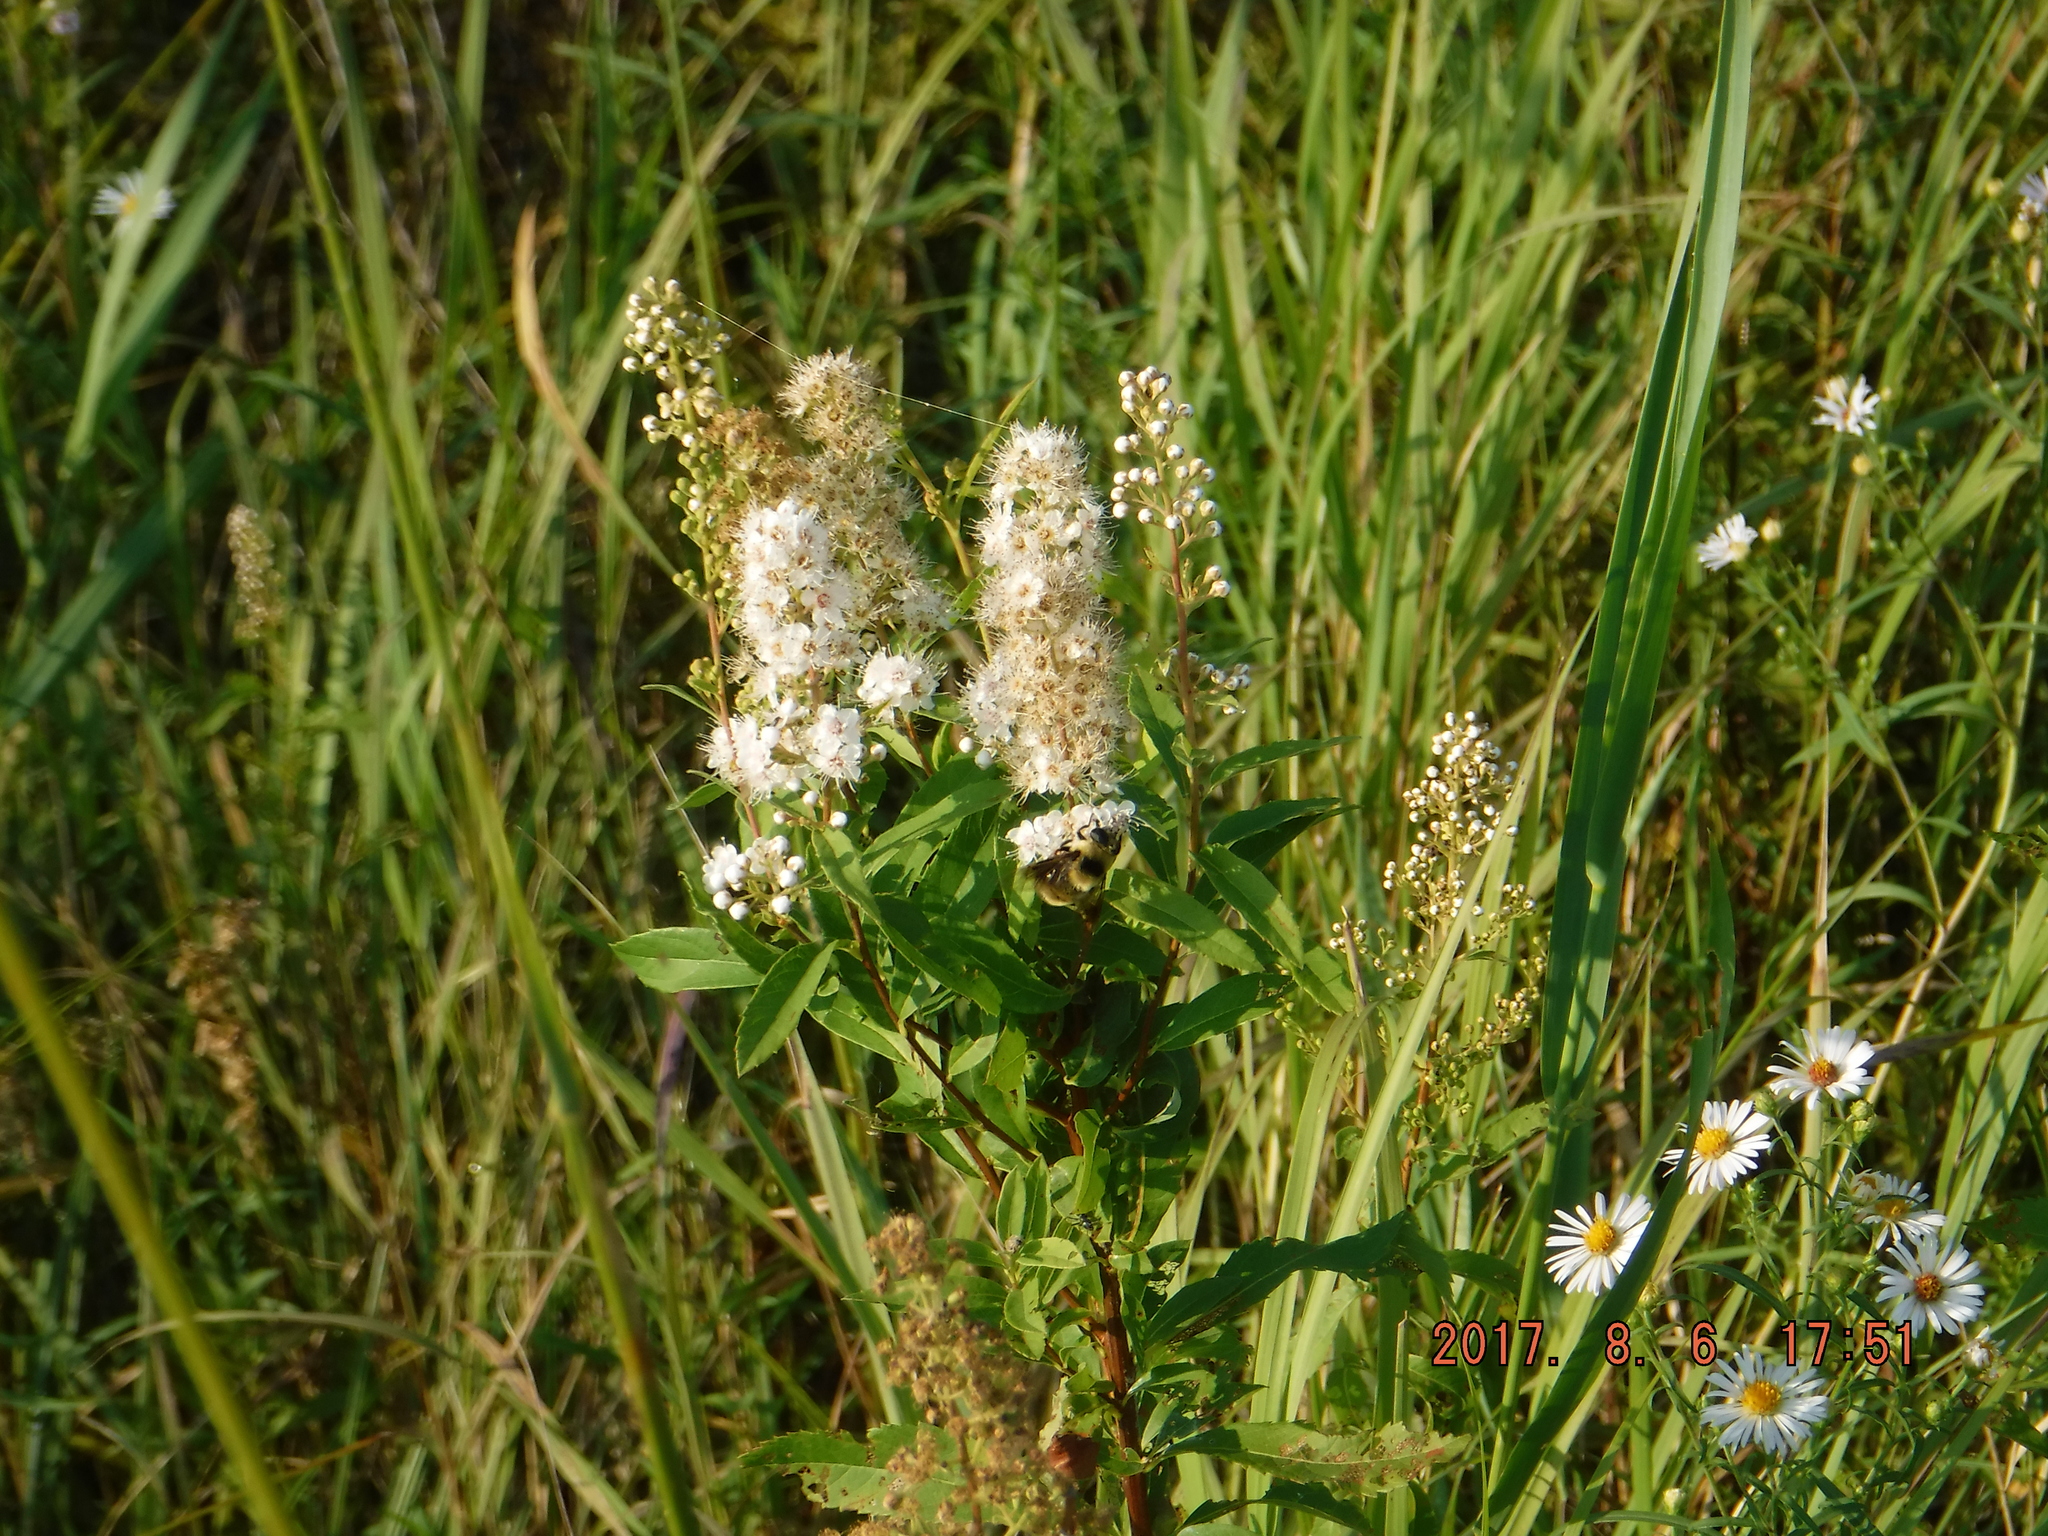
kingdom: Plantae
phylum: Tracheophyta
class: Magnoliopsida
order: Rosales
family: Rosaceae
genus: Spiraea
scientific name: Spiraea alba
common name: Pale bridewort
